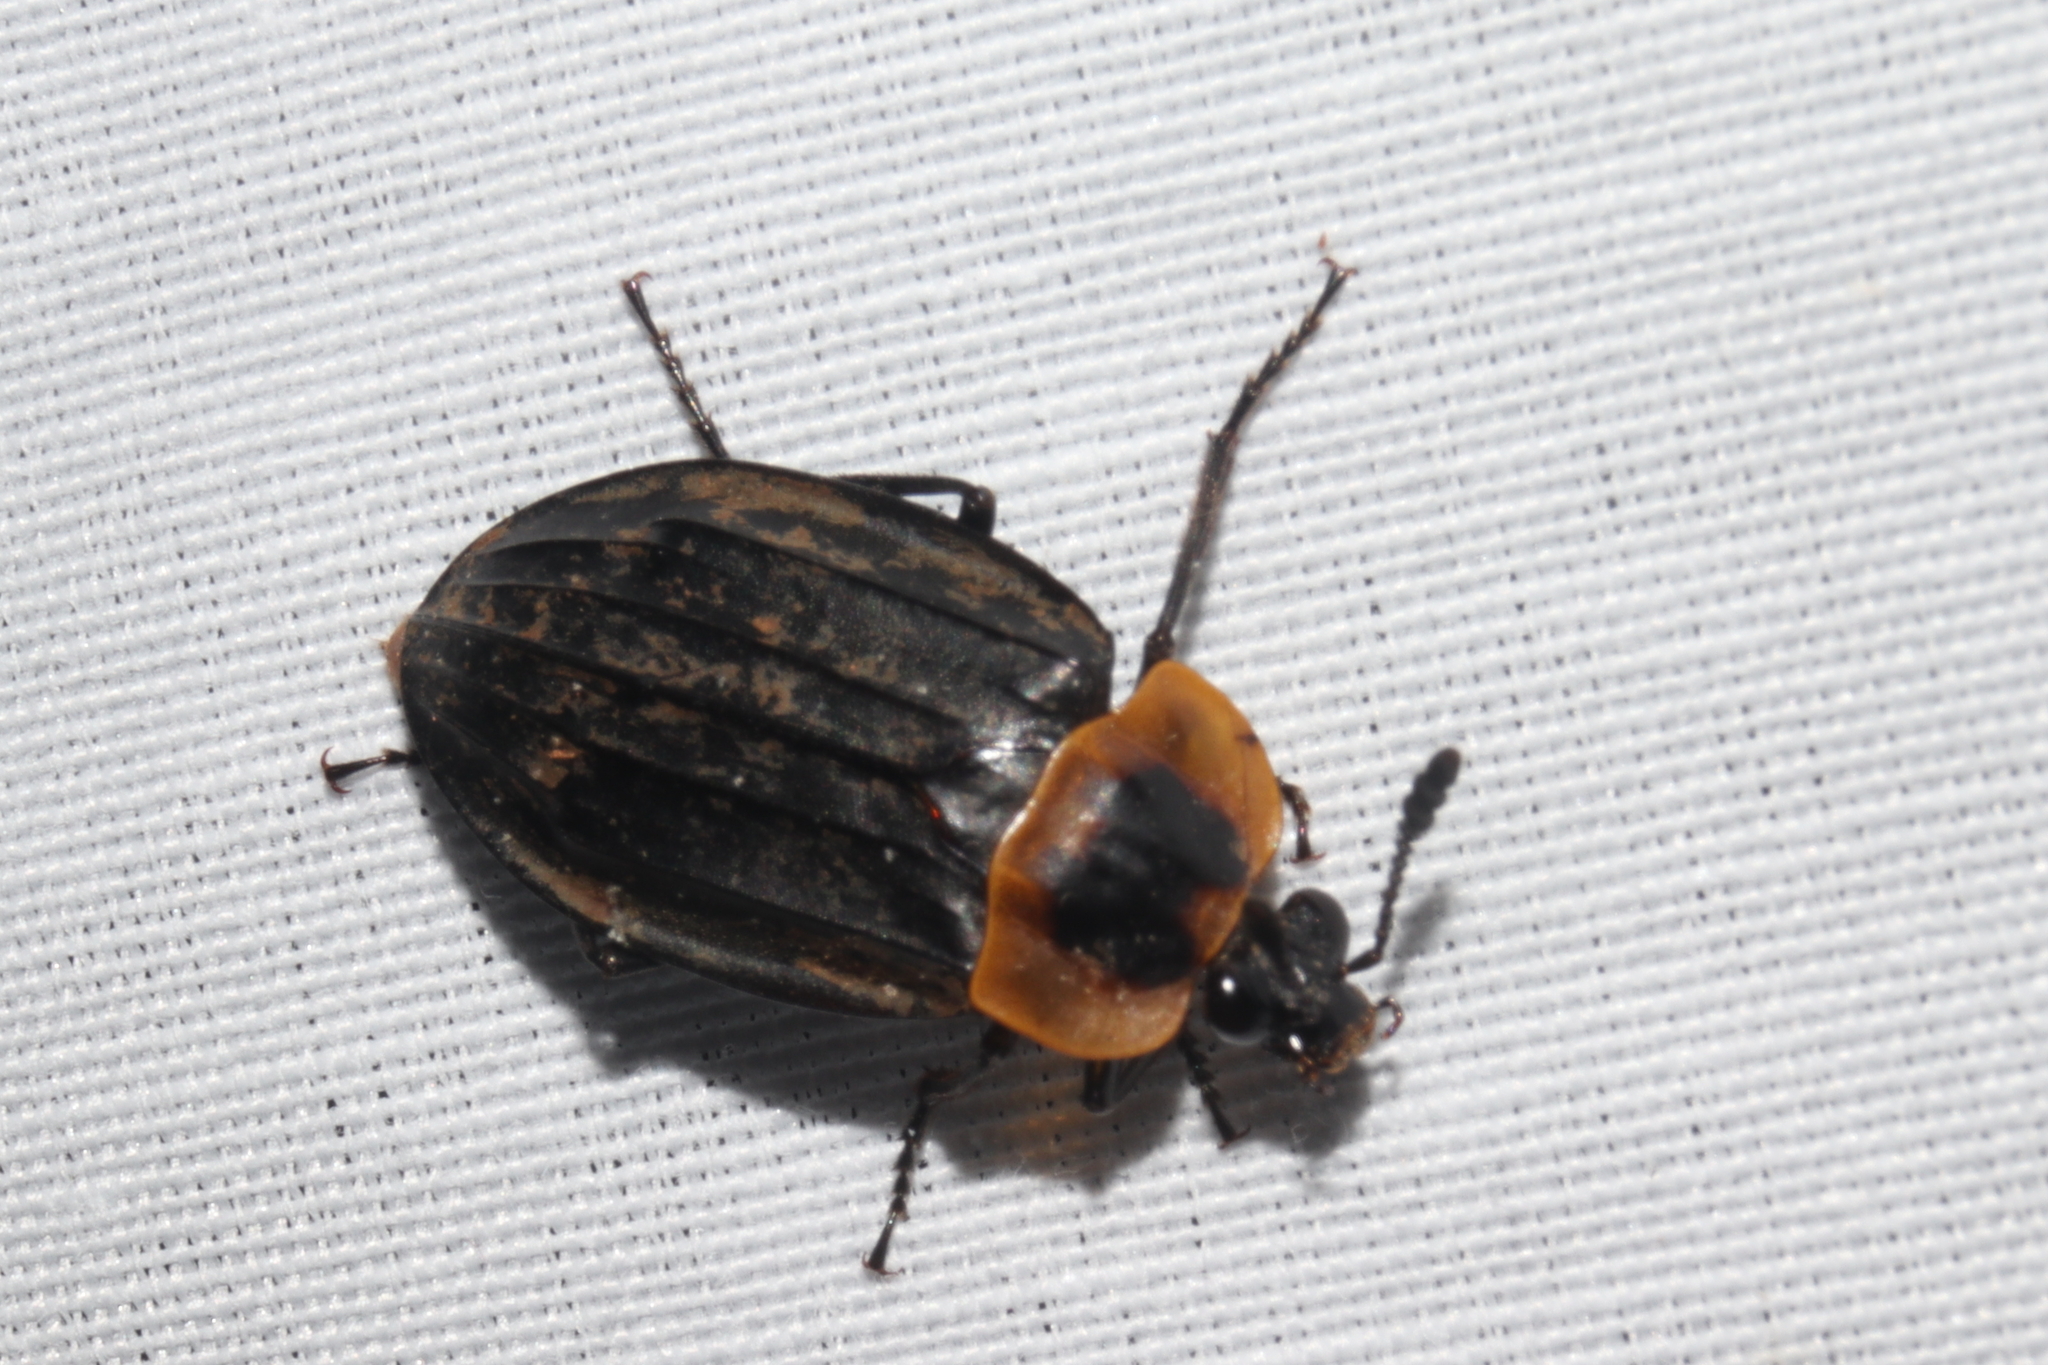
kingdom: Animalia
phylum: Arthropoda
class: Insecta
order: Coleoptera
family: Staphylinidae
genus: Oxelytrum
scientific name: Oxelytrum discicolle
